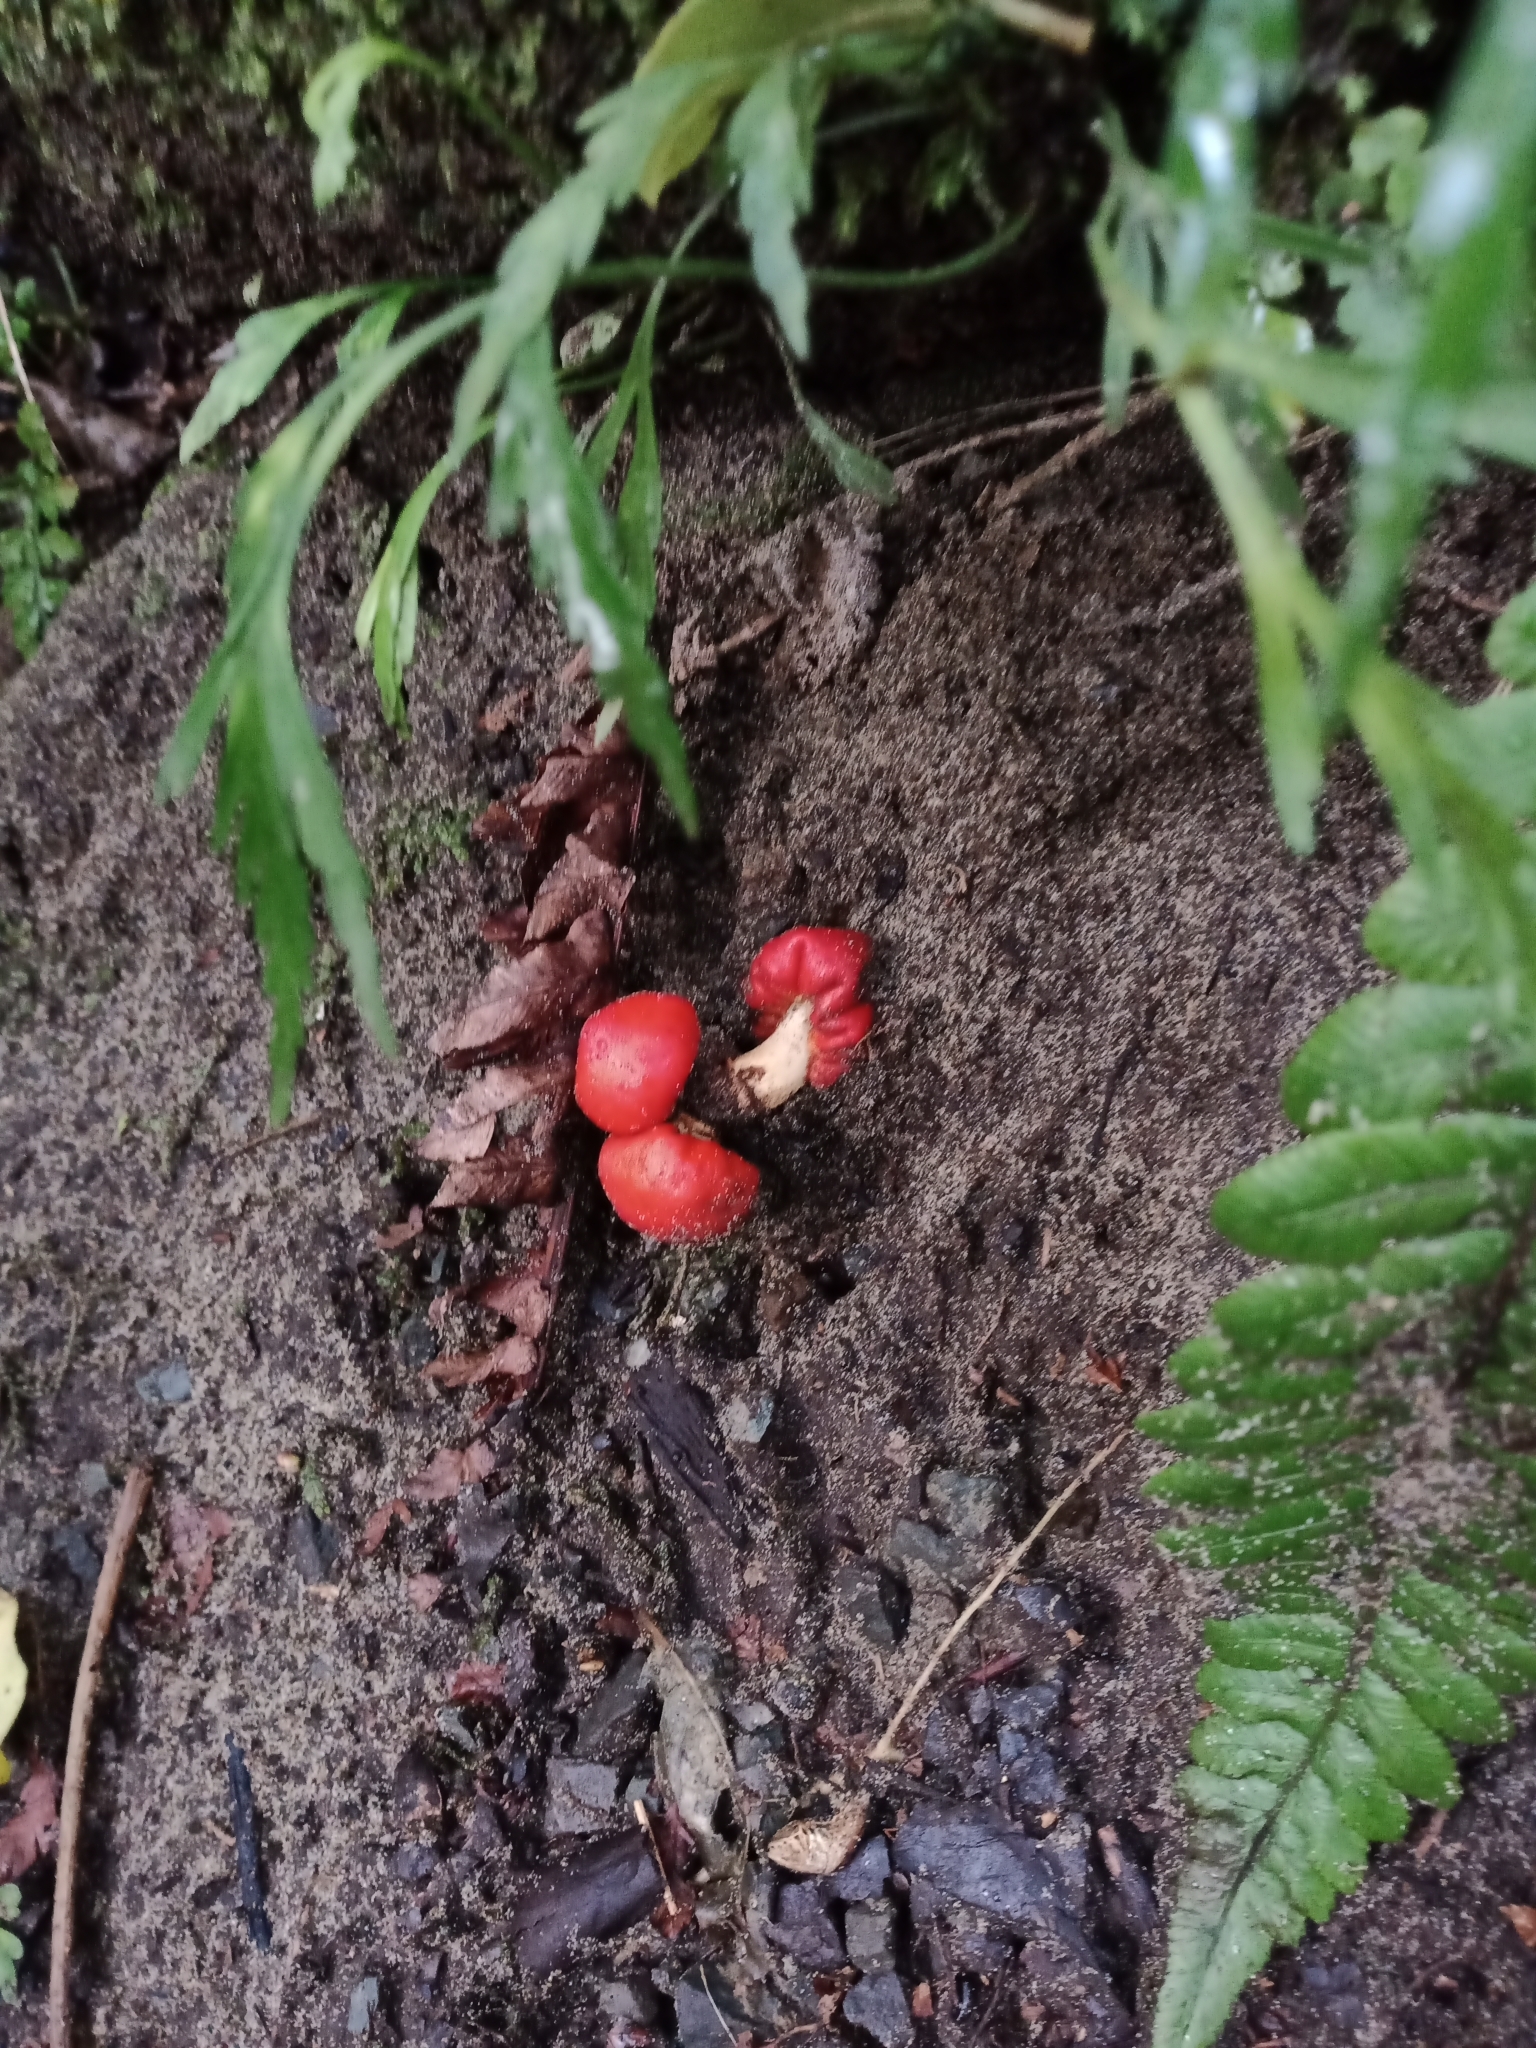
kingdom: Fungi
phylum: Basidiomycota
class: Agaricomycetes
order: Agaricales
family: Strophariaceae
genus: Leratiomyces
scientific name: Leratiomyces erythrocephalus
